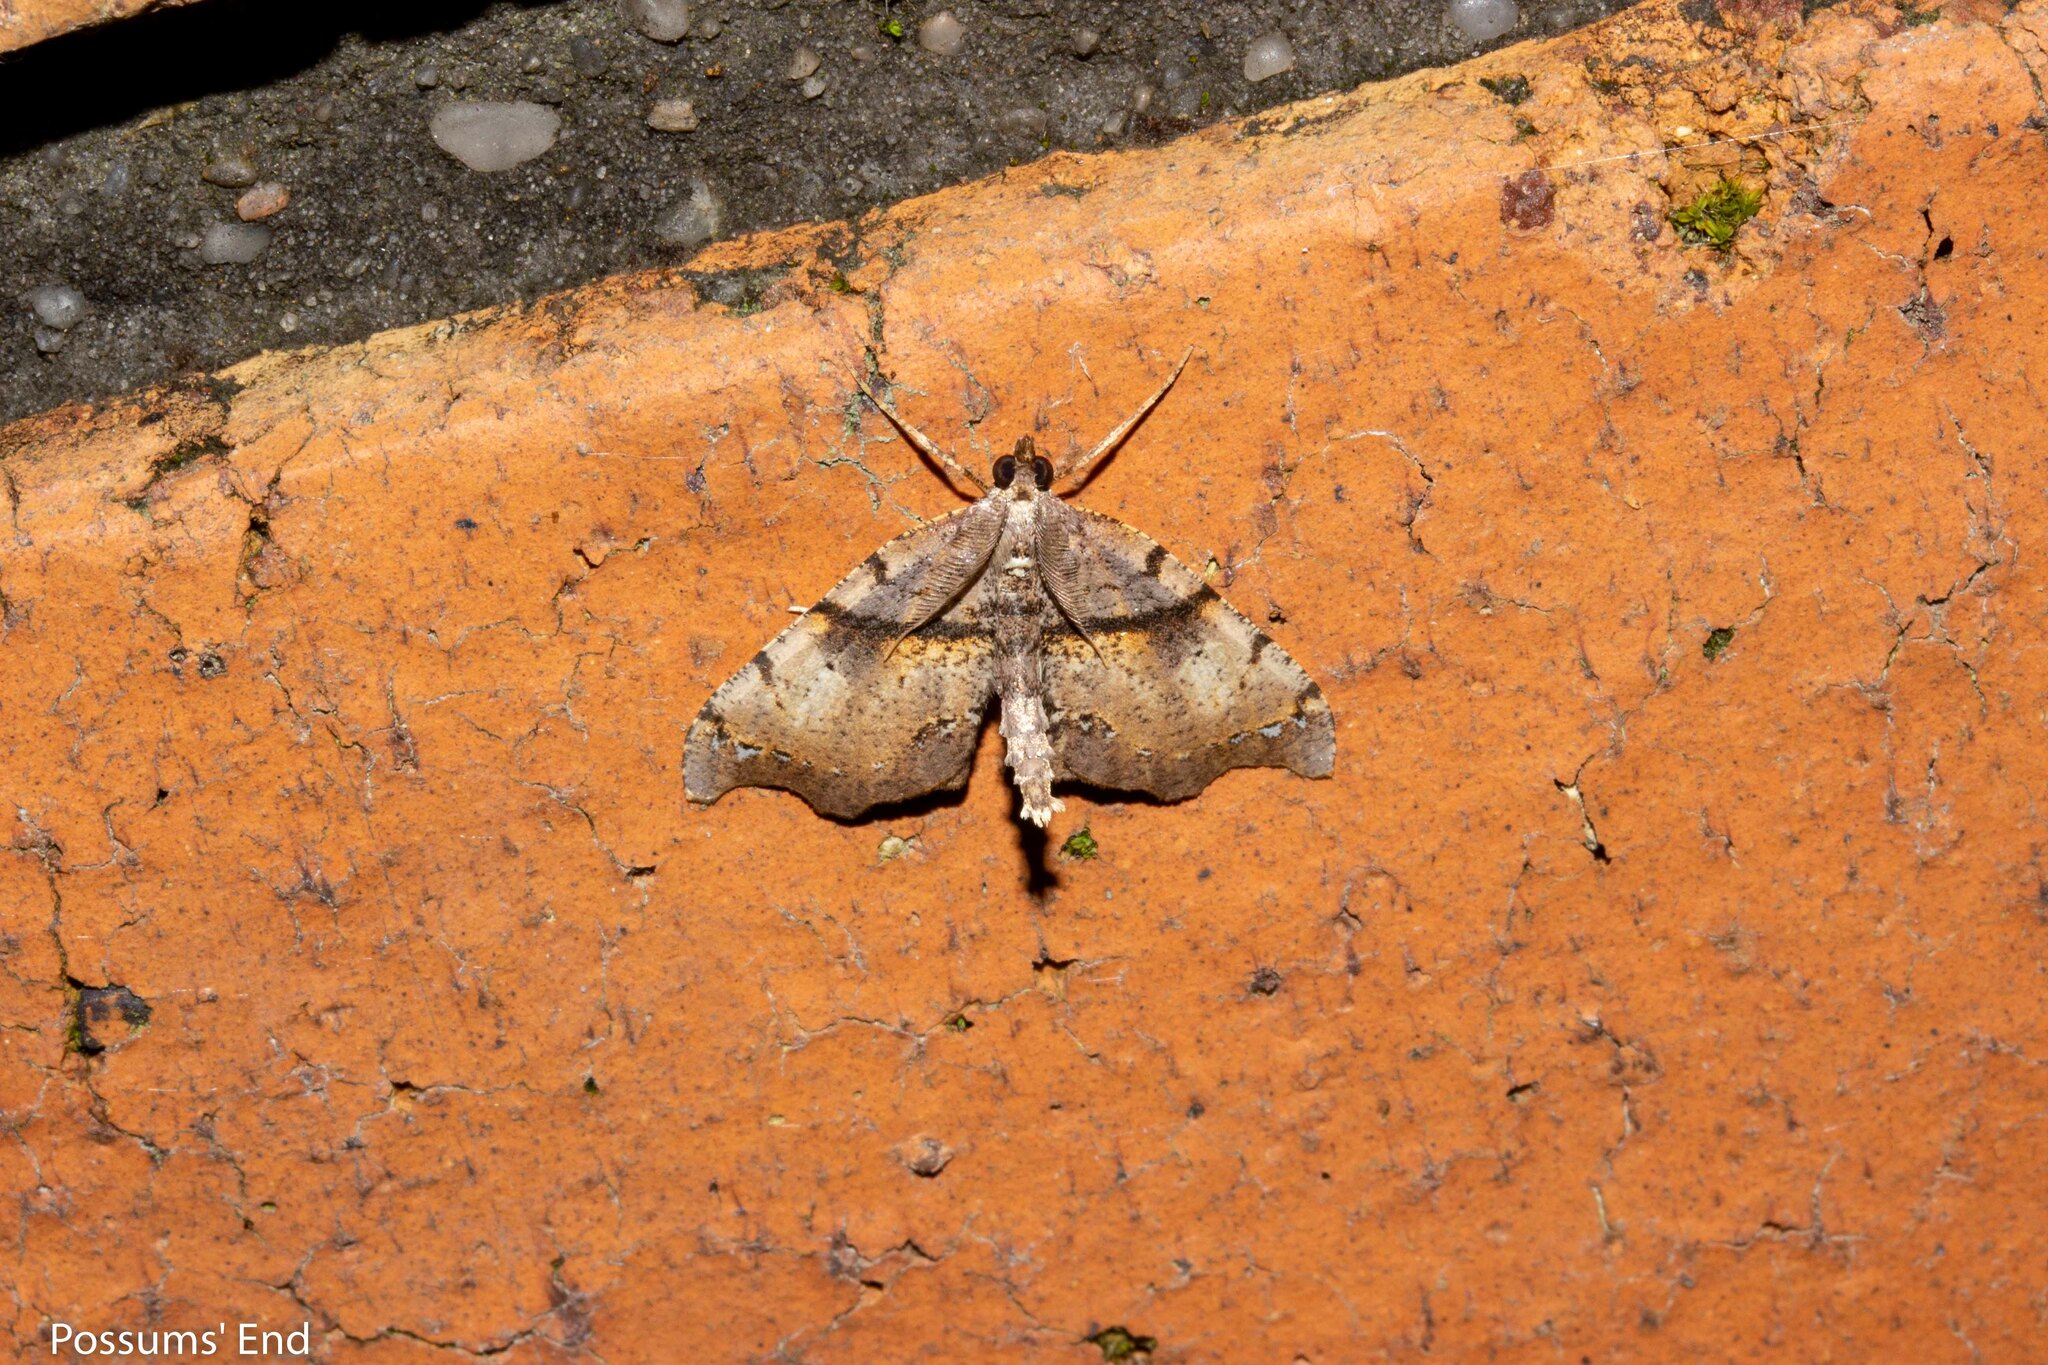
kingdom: Animalia
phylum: Arthropoda
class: Insecta
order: Lepidoptera
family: Geometridae
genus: Chalastra
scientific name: Chalastra pellurgata
